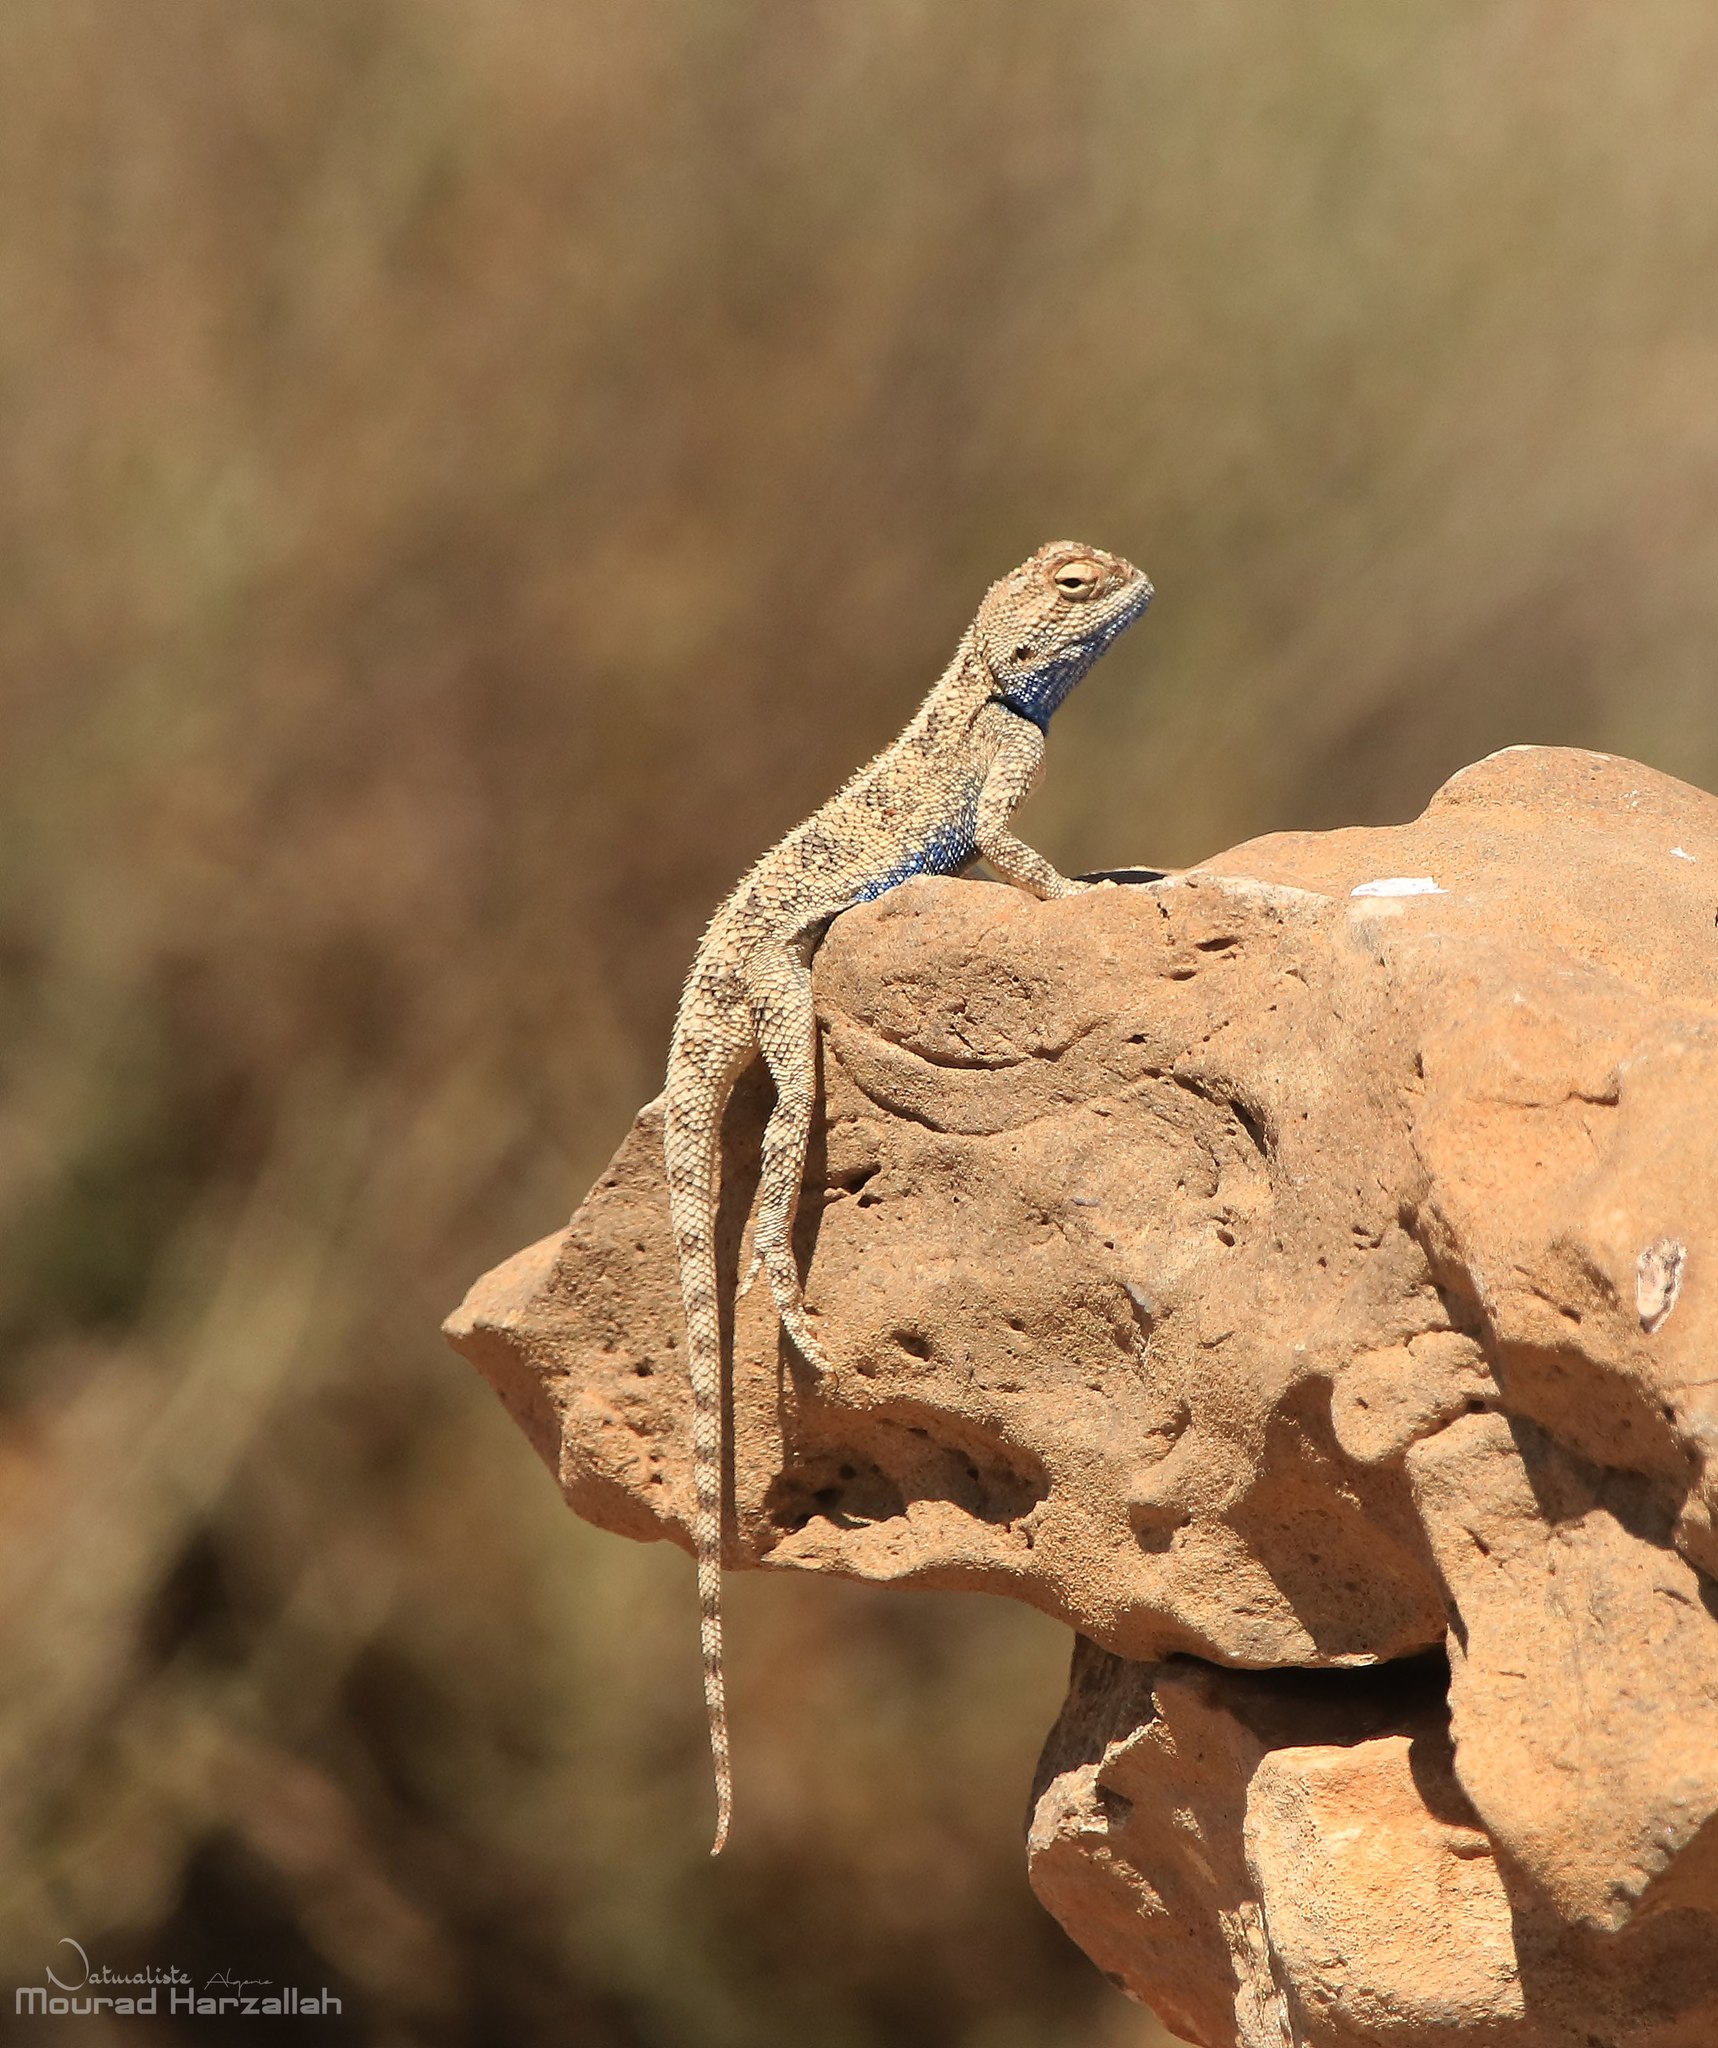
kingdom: Animalia
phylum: Chordata
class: Squamata
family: Agamidae
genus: Trapelus
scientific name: Trapelus mutabilis
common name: Desert agama
